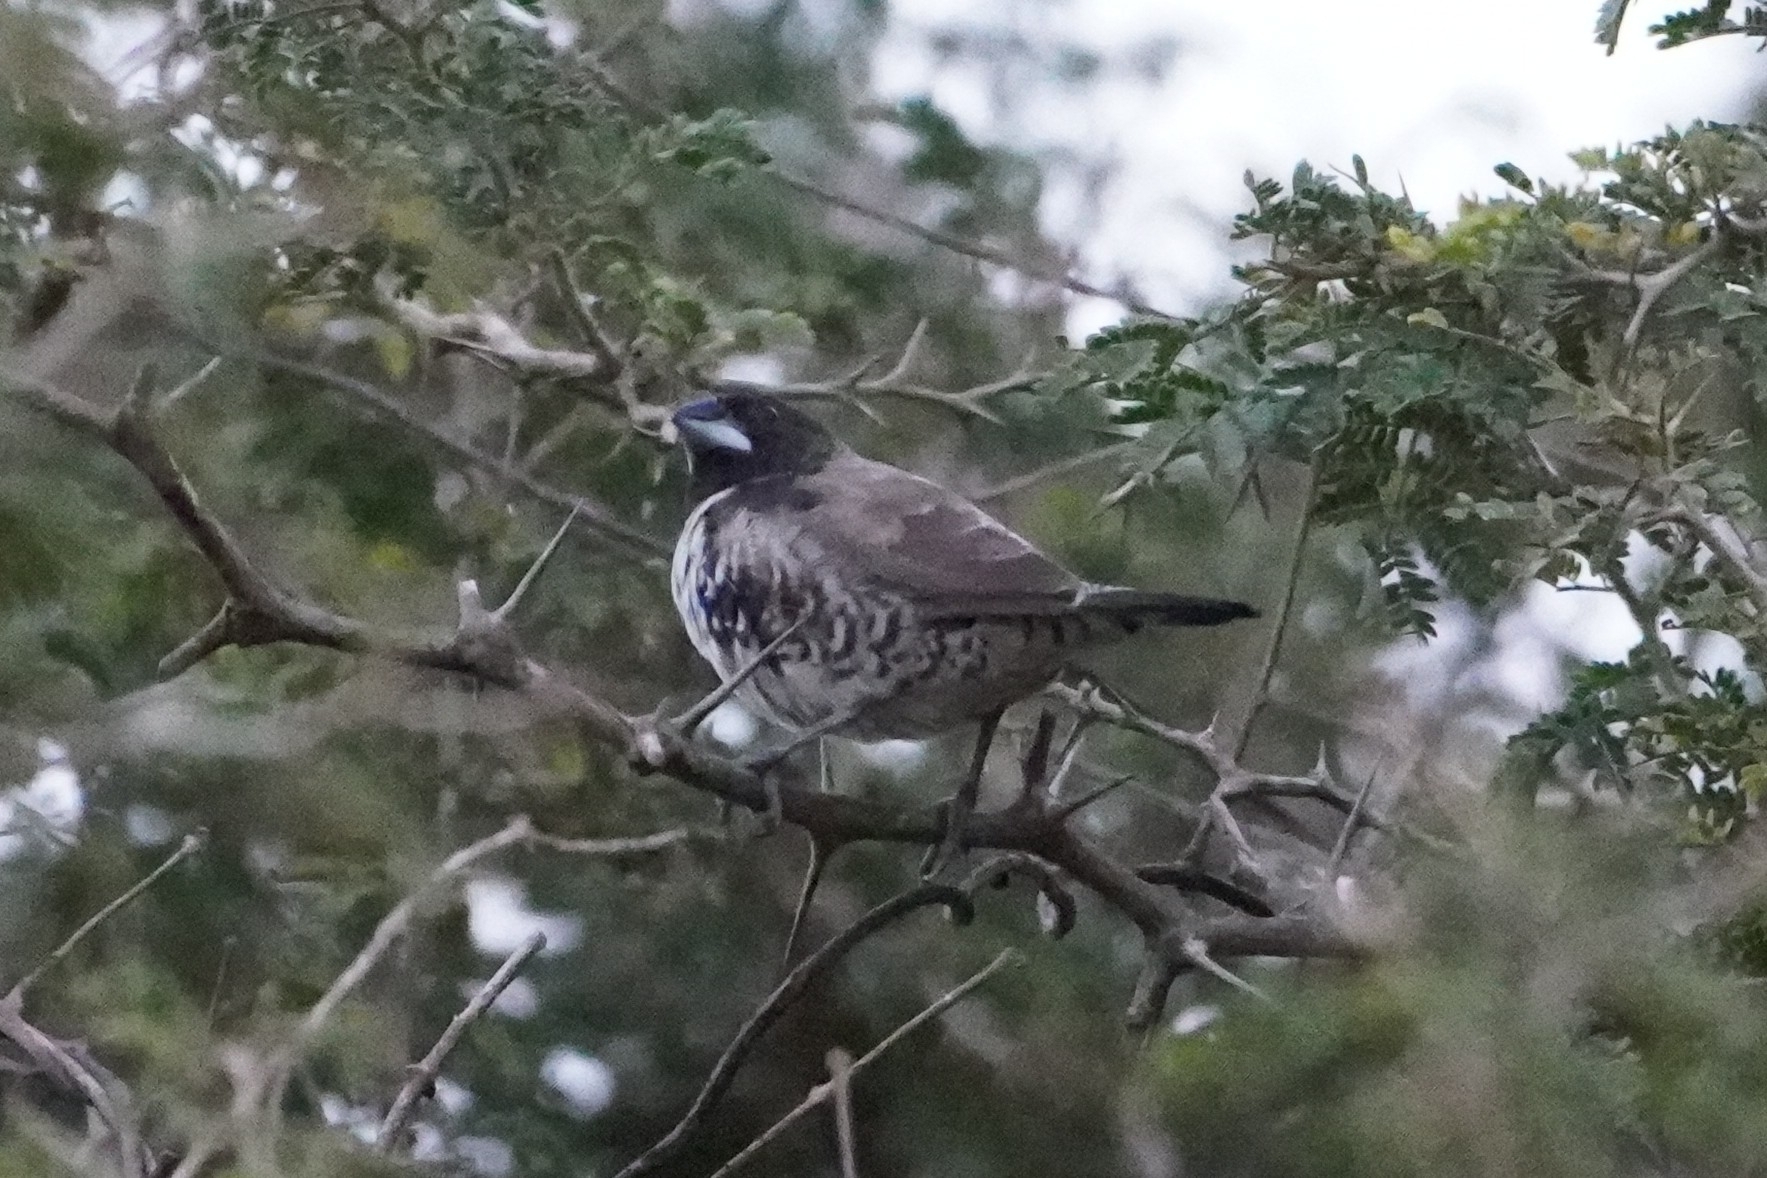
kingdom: Animalia
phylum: Chordata
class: Aves
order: Passeriformes
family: Estrildidae
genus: Lonchura
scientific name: Lonchura cucullata
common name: Bronze mannikin
